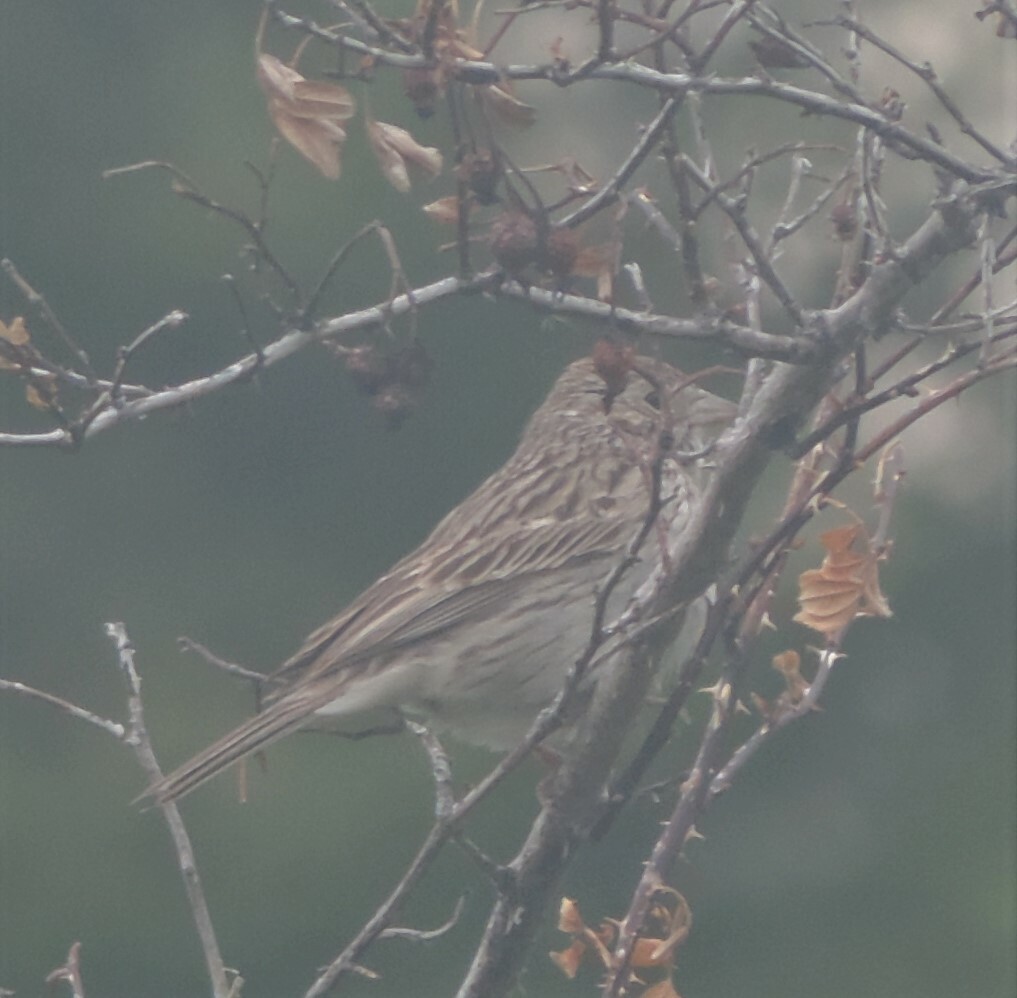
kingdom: Animalia
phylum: Chordata
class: Aves
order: Passeriformes
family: Passerellidae
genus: Pooecetes
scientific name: Pooecetes gramineus
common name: Vesper sparrow
